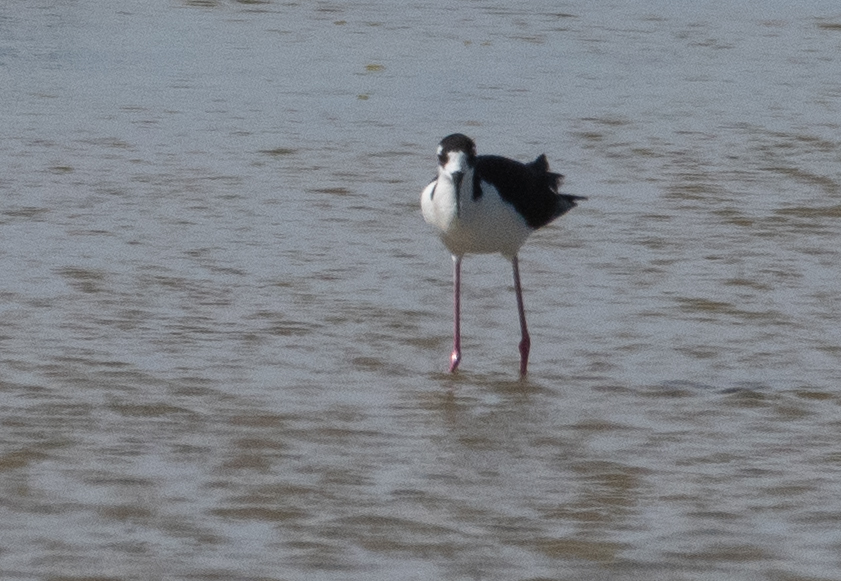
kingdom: Animalia
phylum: Chordata
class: Aves
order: Charadriiformes
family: Recurvirostridae
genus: Himantopus
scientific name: Himantopus mexicanus
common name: Black-necked stilt
